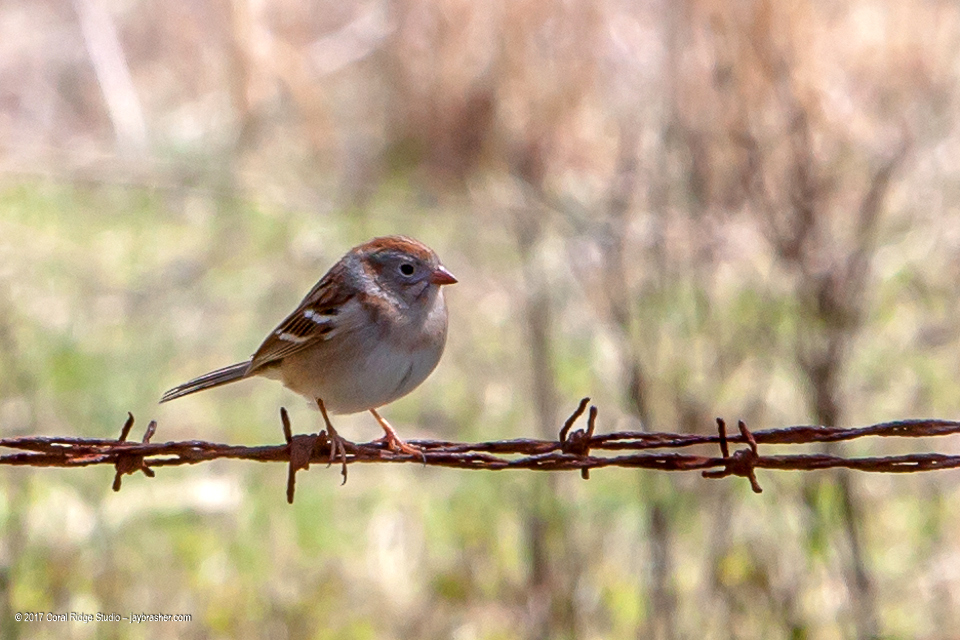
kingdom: Animalia
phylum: Chordata
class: Aves
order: Passeriformes
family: Passerellidae
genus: Spizella
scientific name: Spizella pusilla
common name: Field sparrow
